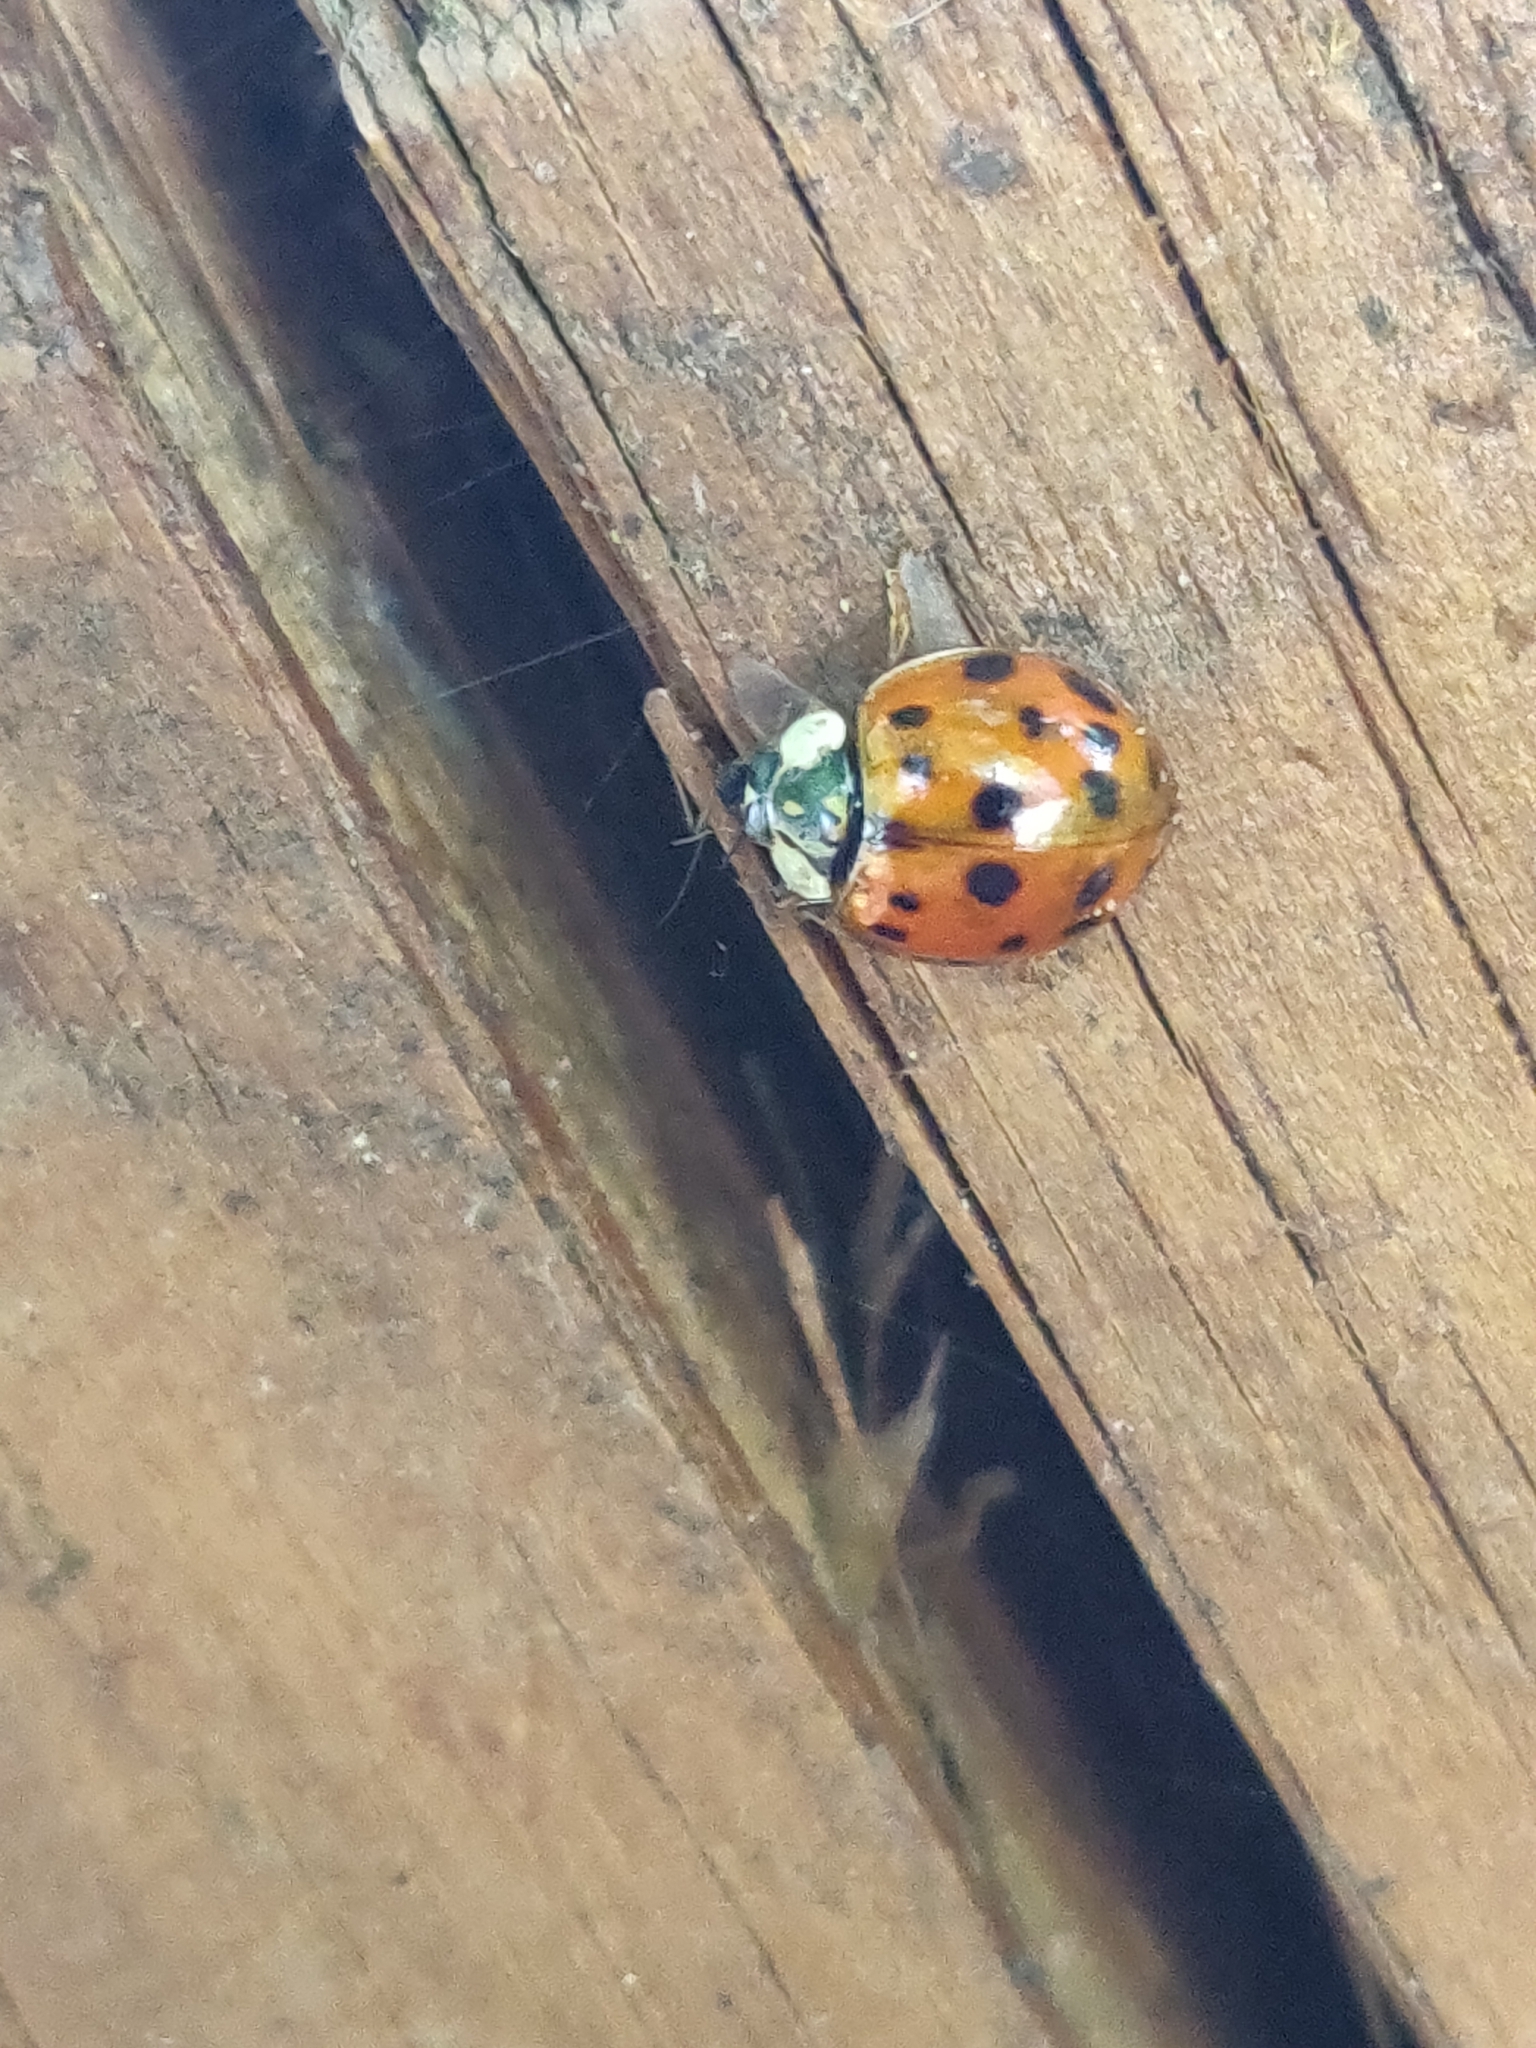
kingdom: Animalia
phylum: Arthropoda
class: Insecta
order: Coleoptera
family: Coccinellidae
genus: Harmonia
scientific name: Harmonia axyridis
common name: Harlequin ladybird
